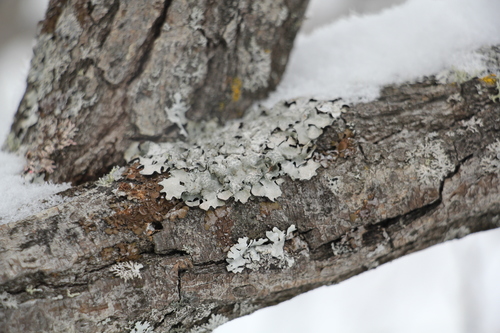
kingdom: Fungi
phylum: Ascomycota
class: Lecanoromycetes
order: Lecanorales
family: Parmeliaceae
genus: Parmelia
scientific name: Parmelia sulcata
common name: Netted shield lichen
